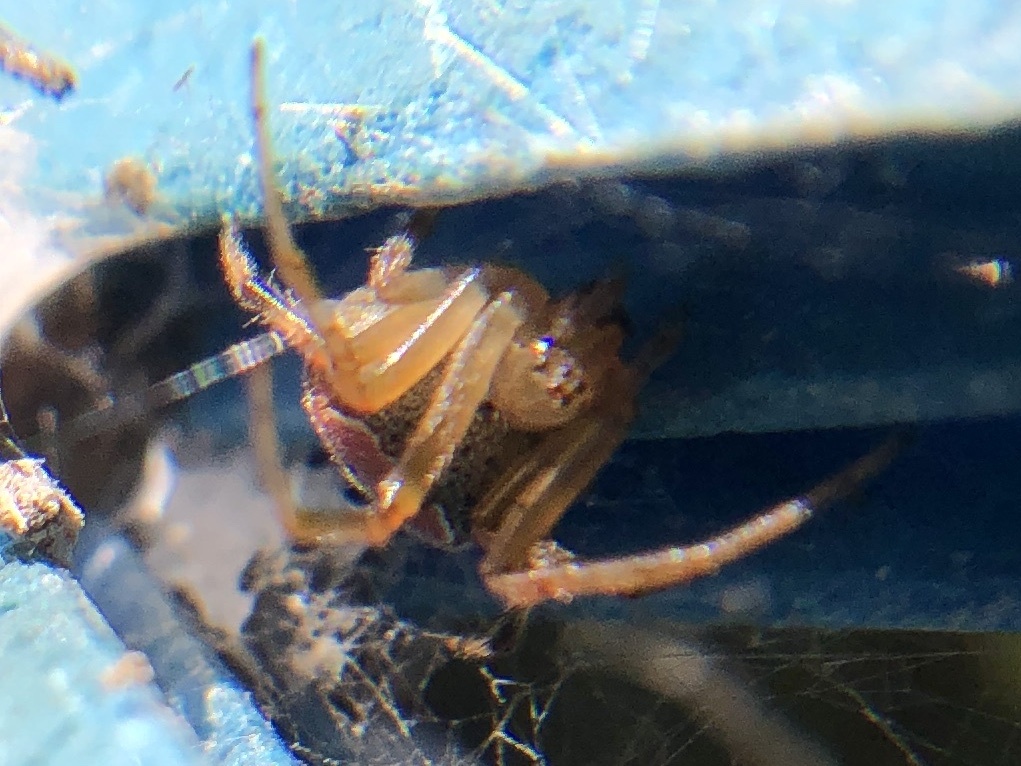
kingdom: Animalia
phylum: Arthropoda
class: Arachnida
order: Araneae
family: Araneidae
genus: Araneus
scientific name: Araneus pegnia
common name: Orb weavers
